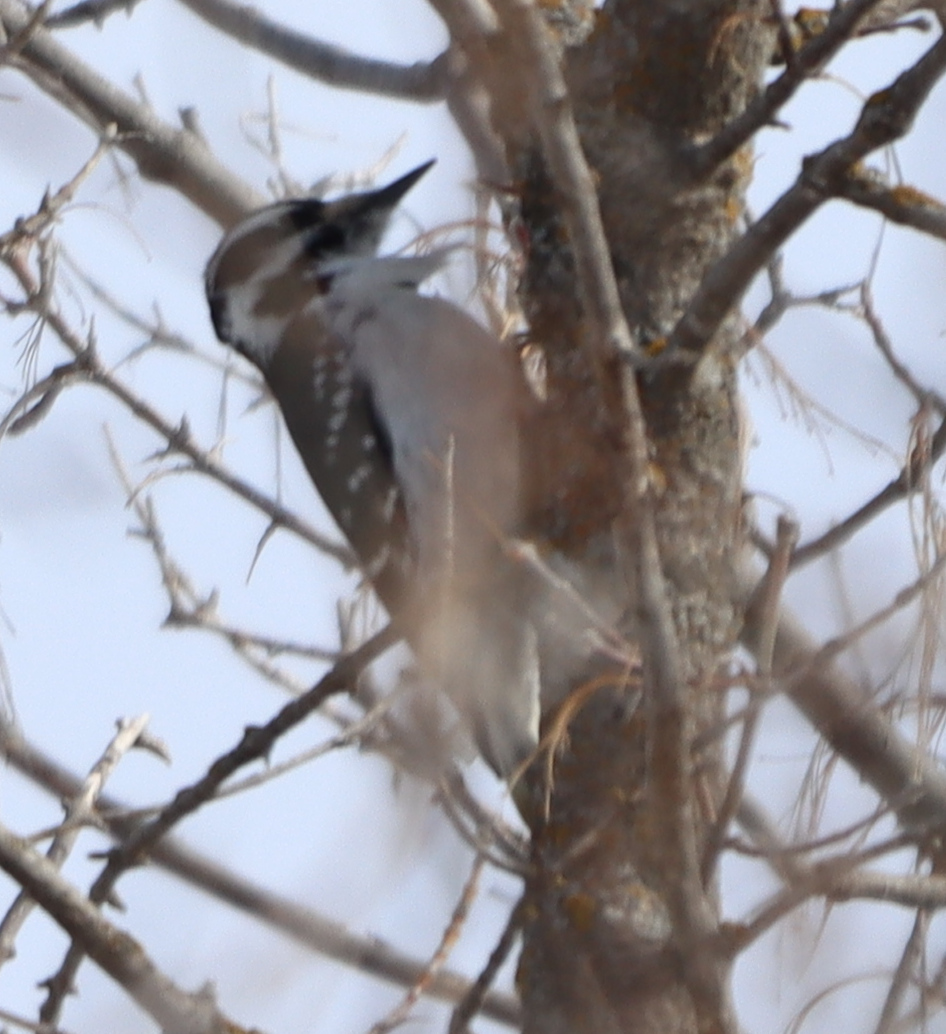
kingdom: Animalia
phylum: Chordata
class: Aves
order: Piciformes
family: Picidae
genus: Leuconotopicus
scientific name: Leuconotopicus villosus
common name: Hairy woodpecker
